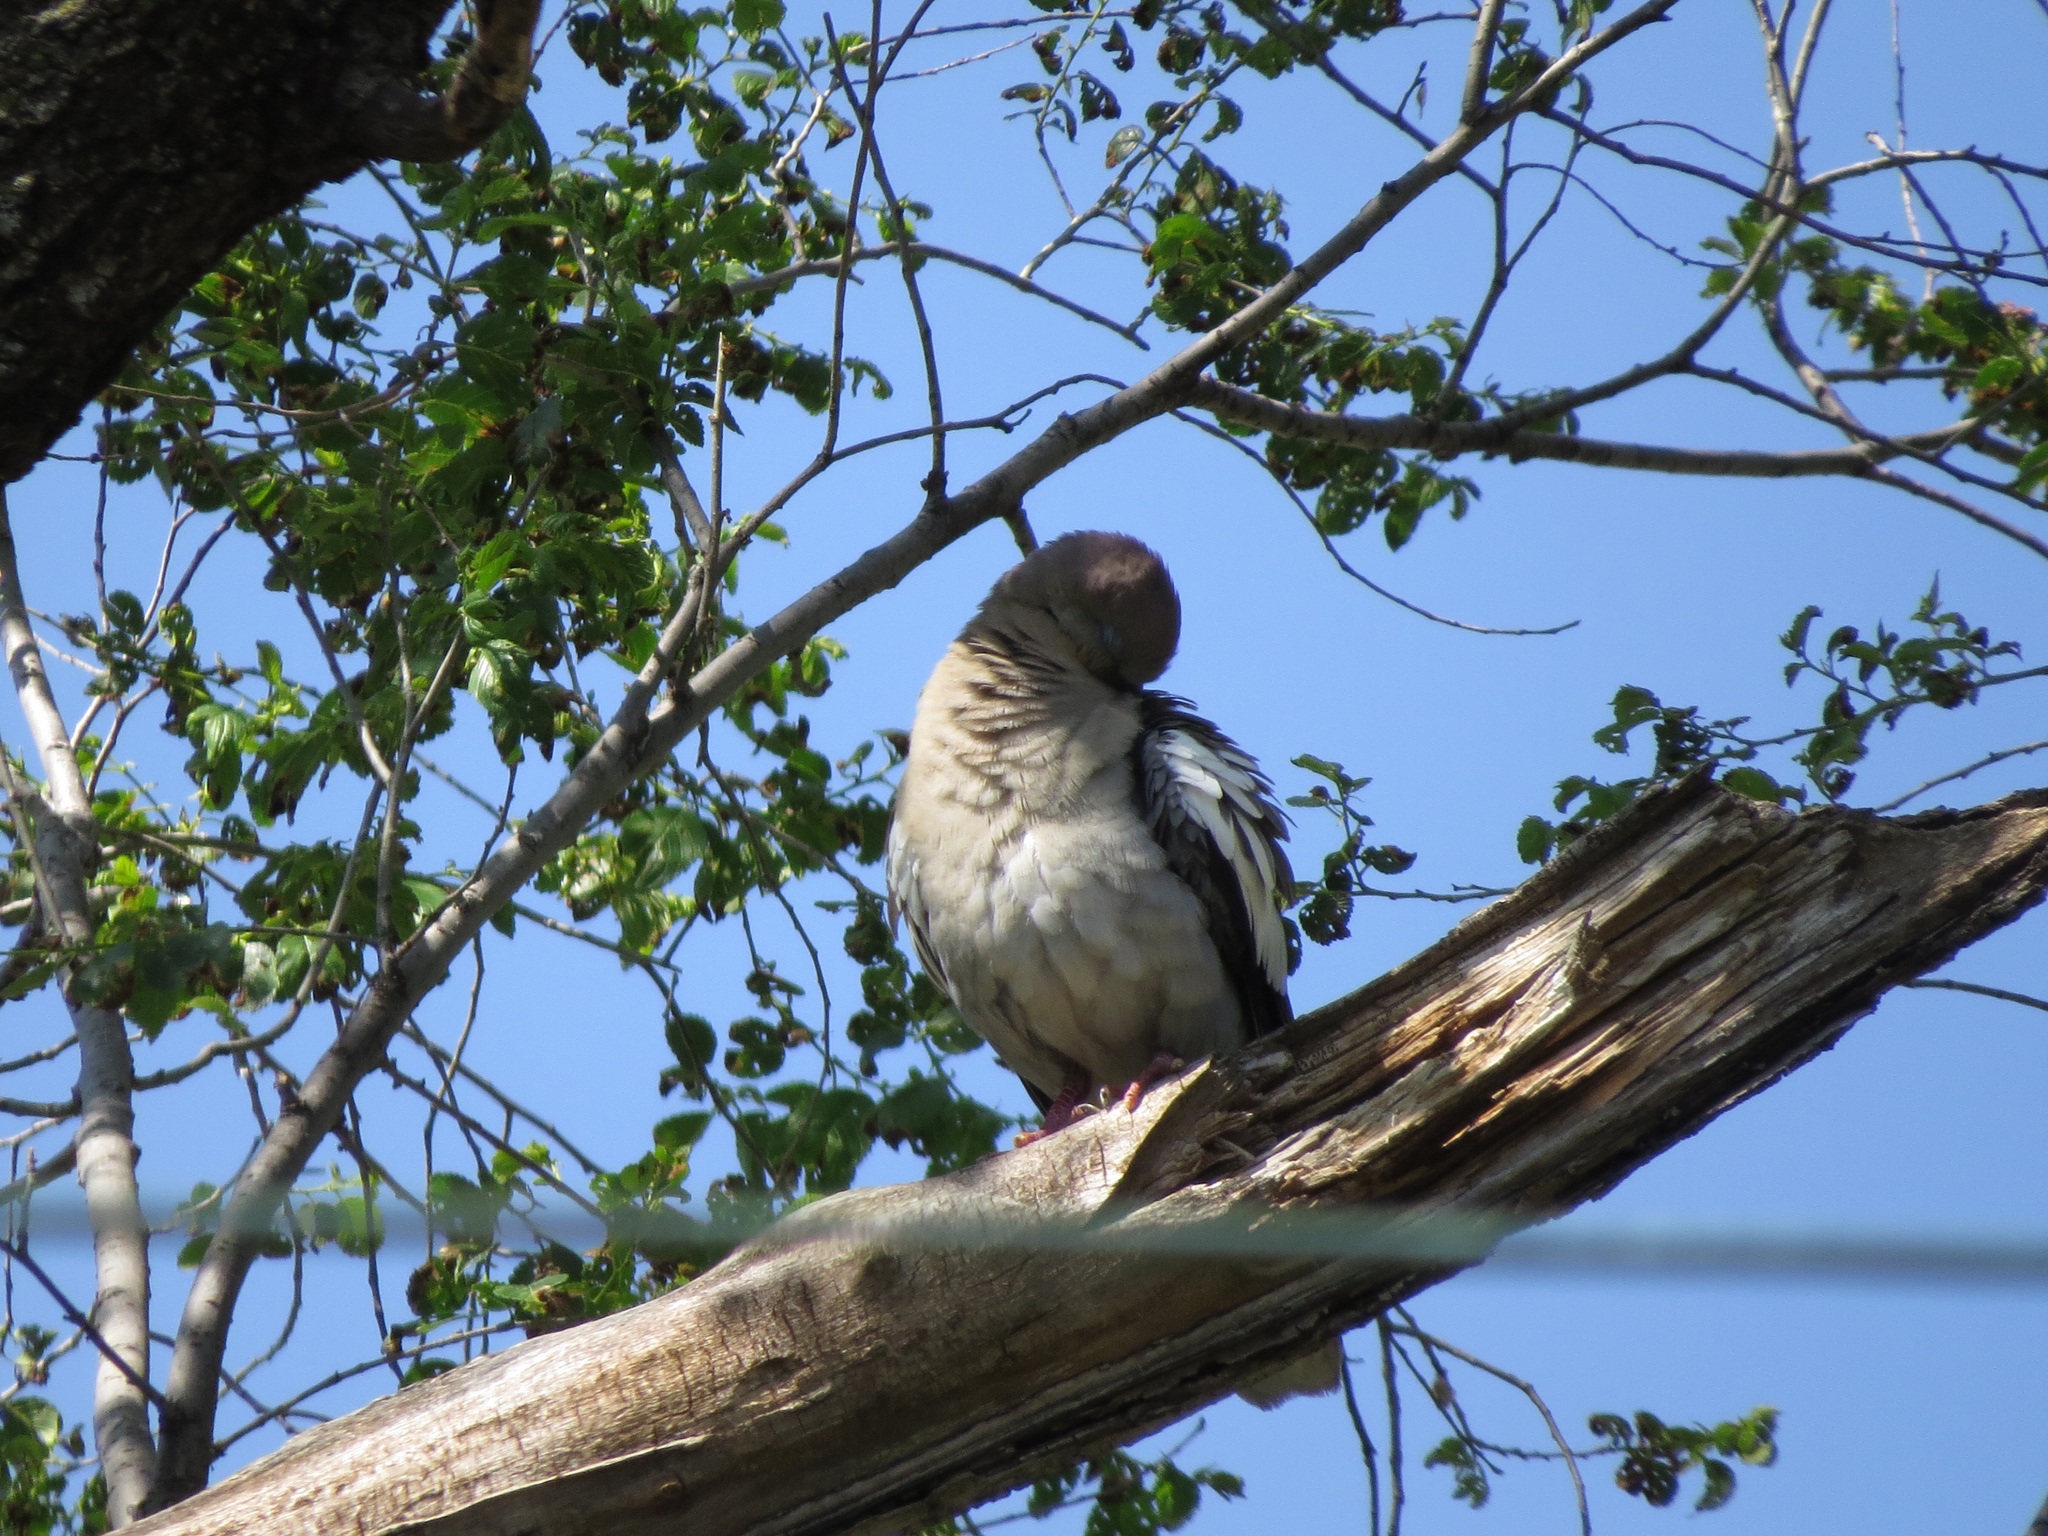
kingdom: Animalia
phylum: Chordata
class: Aves
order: Columbiformes
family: Columbidae
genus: Zenaida
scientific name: Zenaida asiatica
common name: White-winged dove
